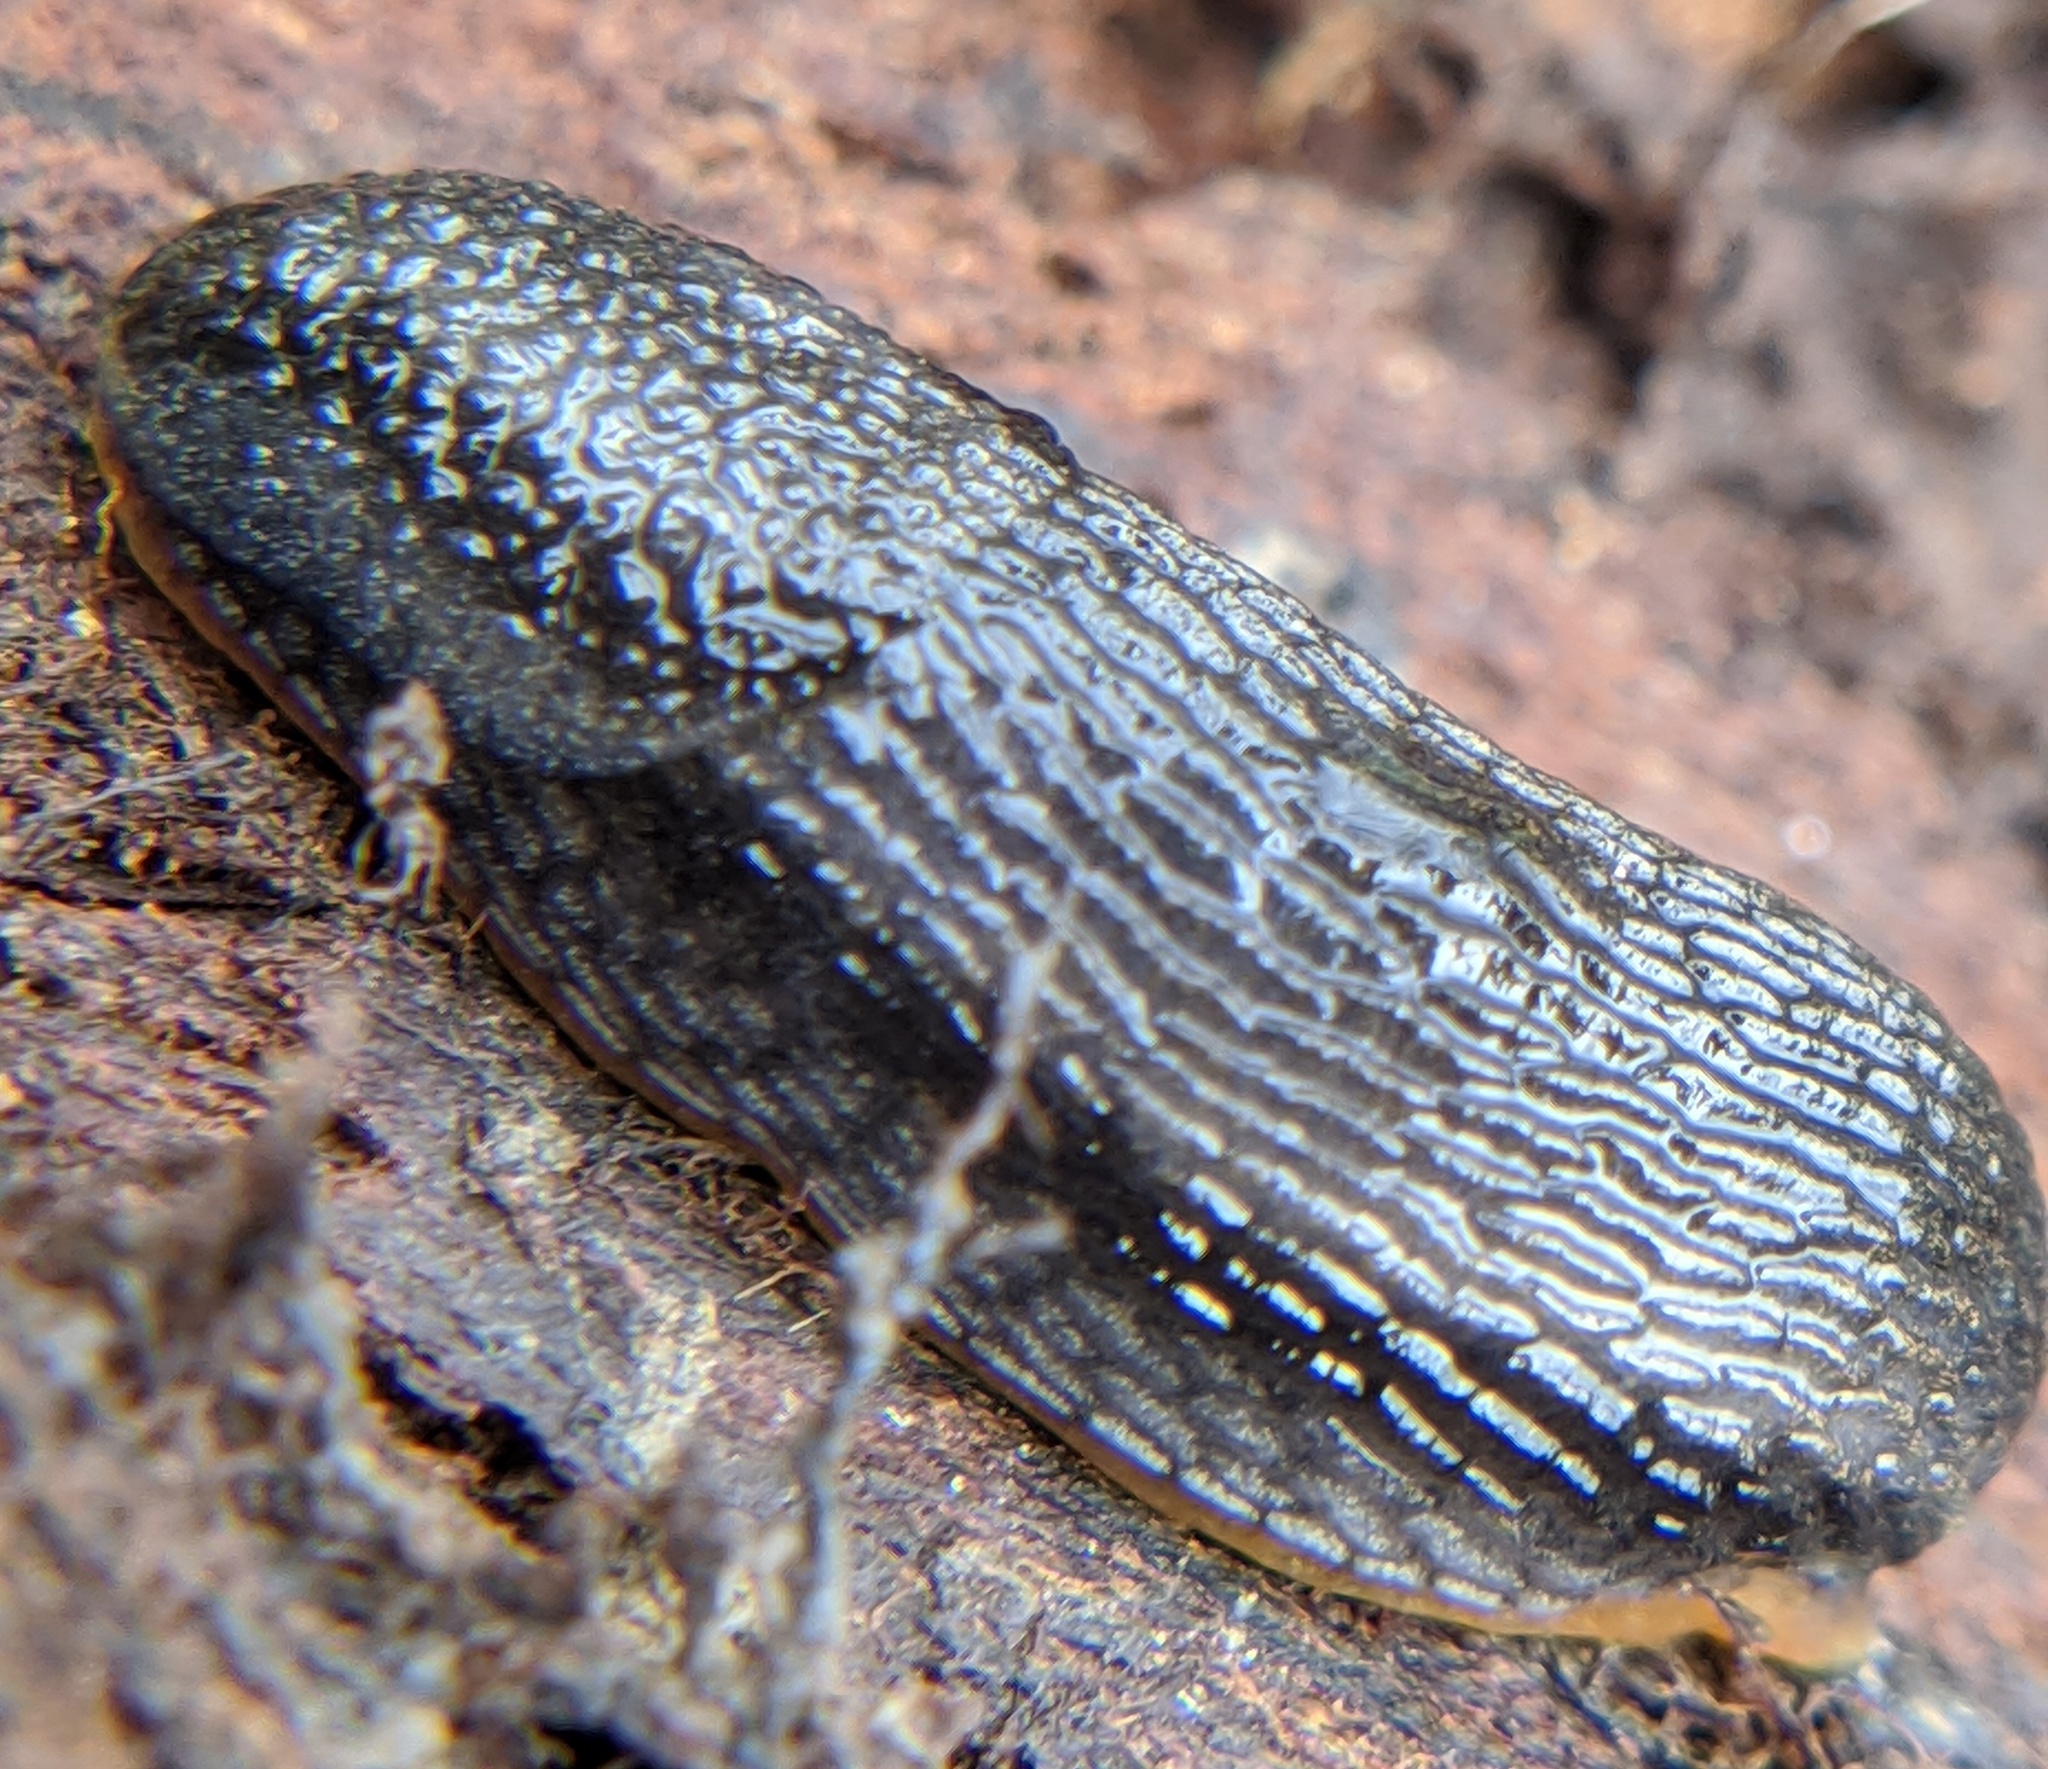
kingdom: Animalia
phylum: Mollusca
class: Gastropoda
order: Stylommatophora
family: Arionidae
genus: Arion
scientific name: Arion hortensis
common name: Garden arion
